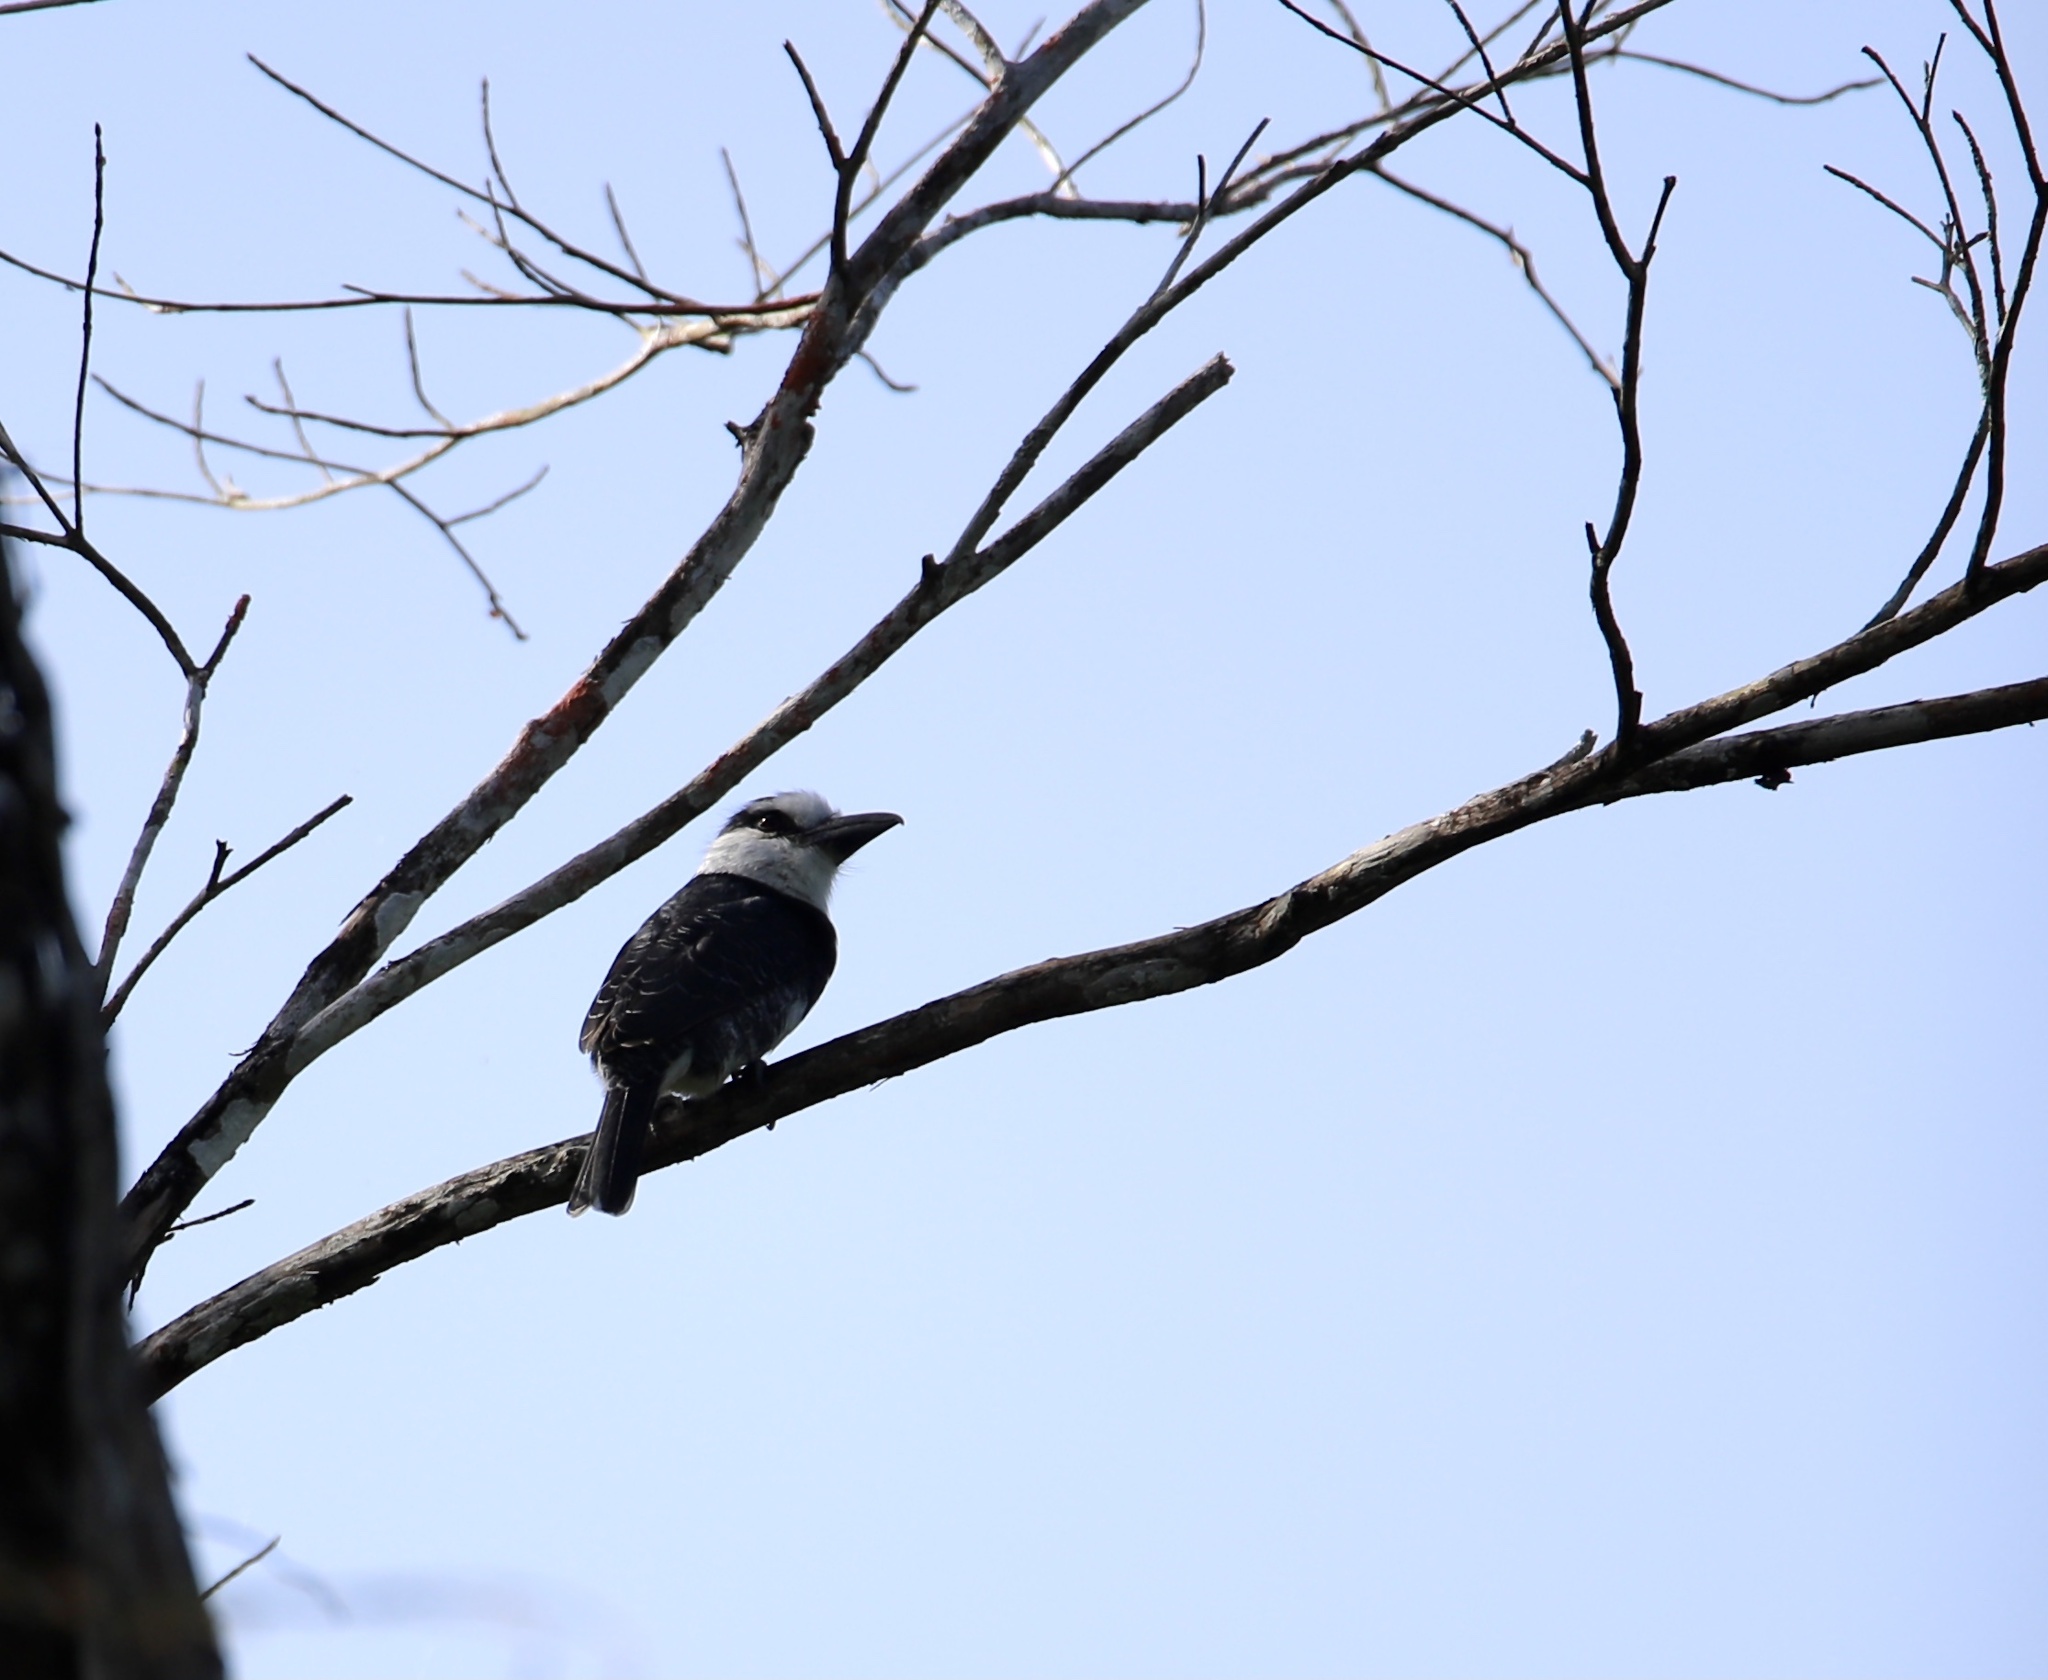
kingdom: Animalia
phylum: Chordata
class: Aves
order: Piciformes
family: Bucconidae
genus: Notharchus
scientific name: Notharchus hyperrhynchus
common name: White-necked puffbird
